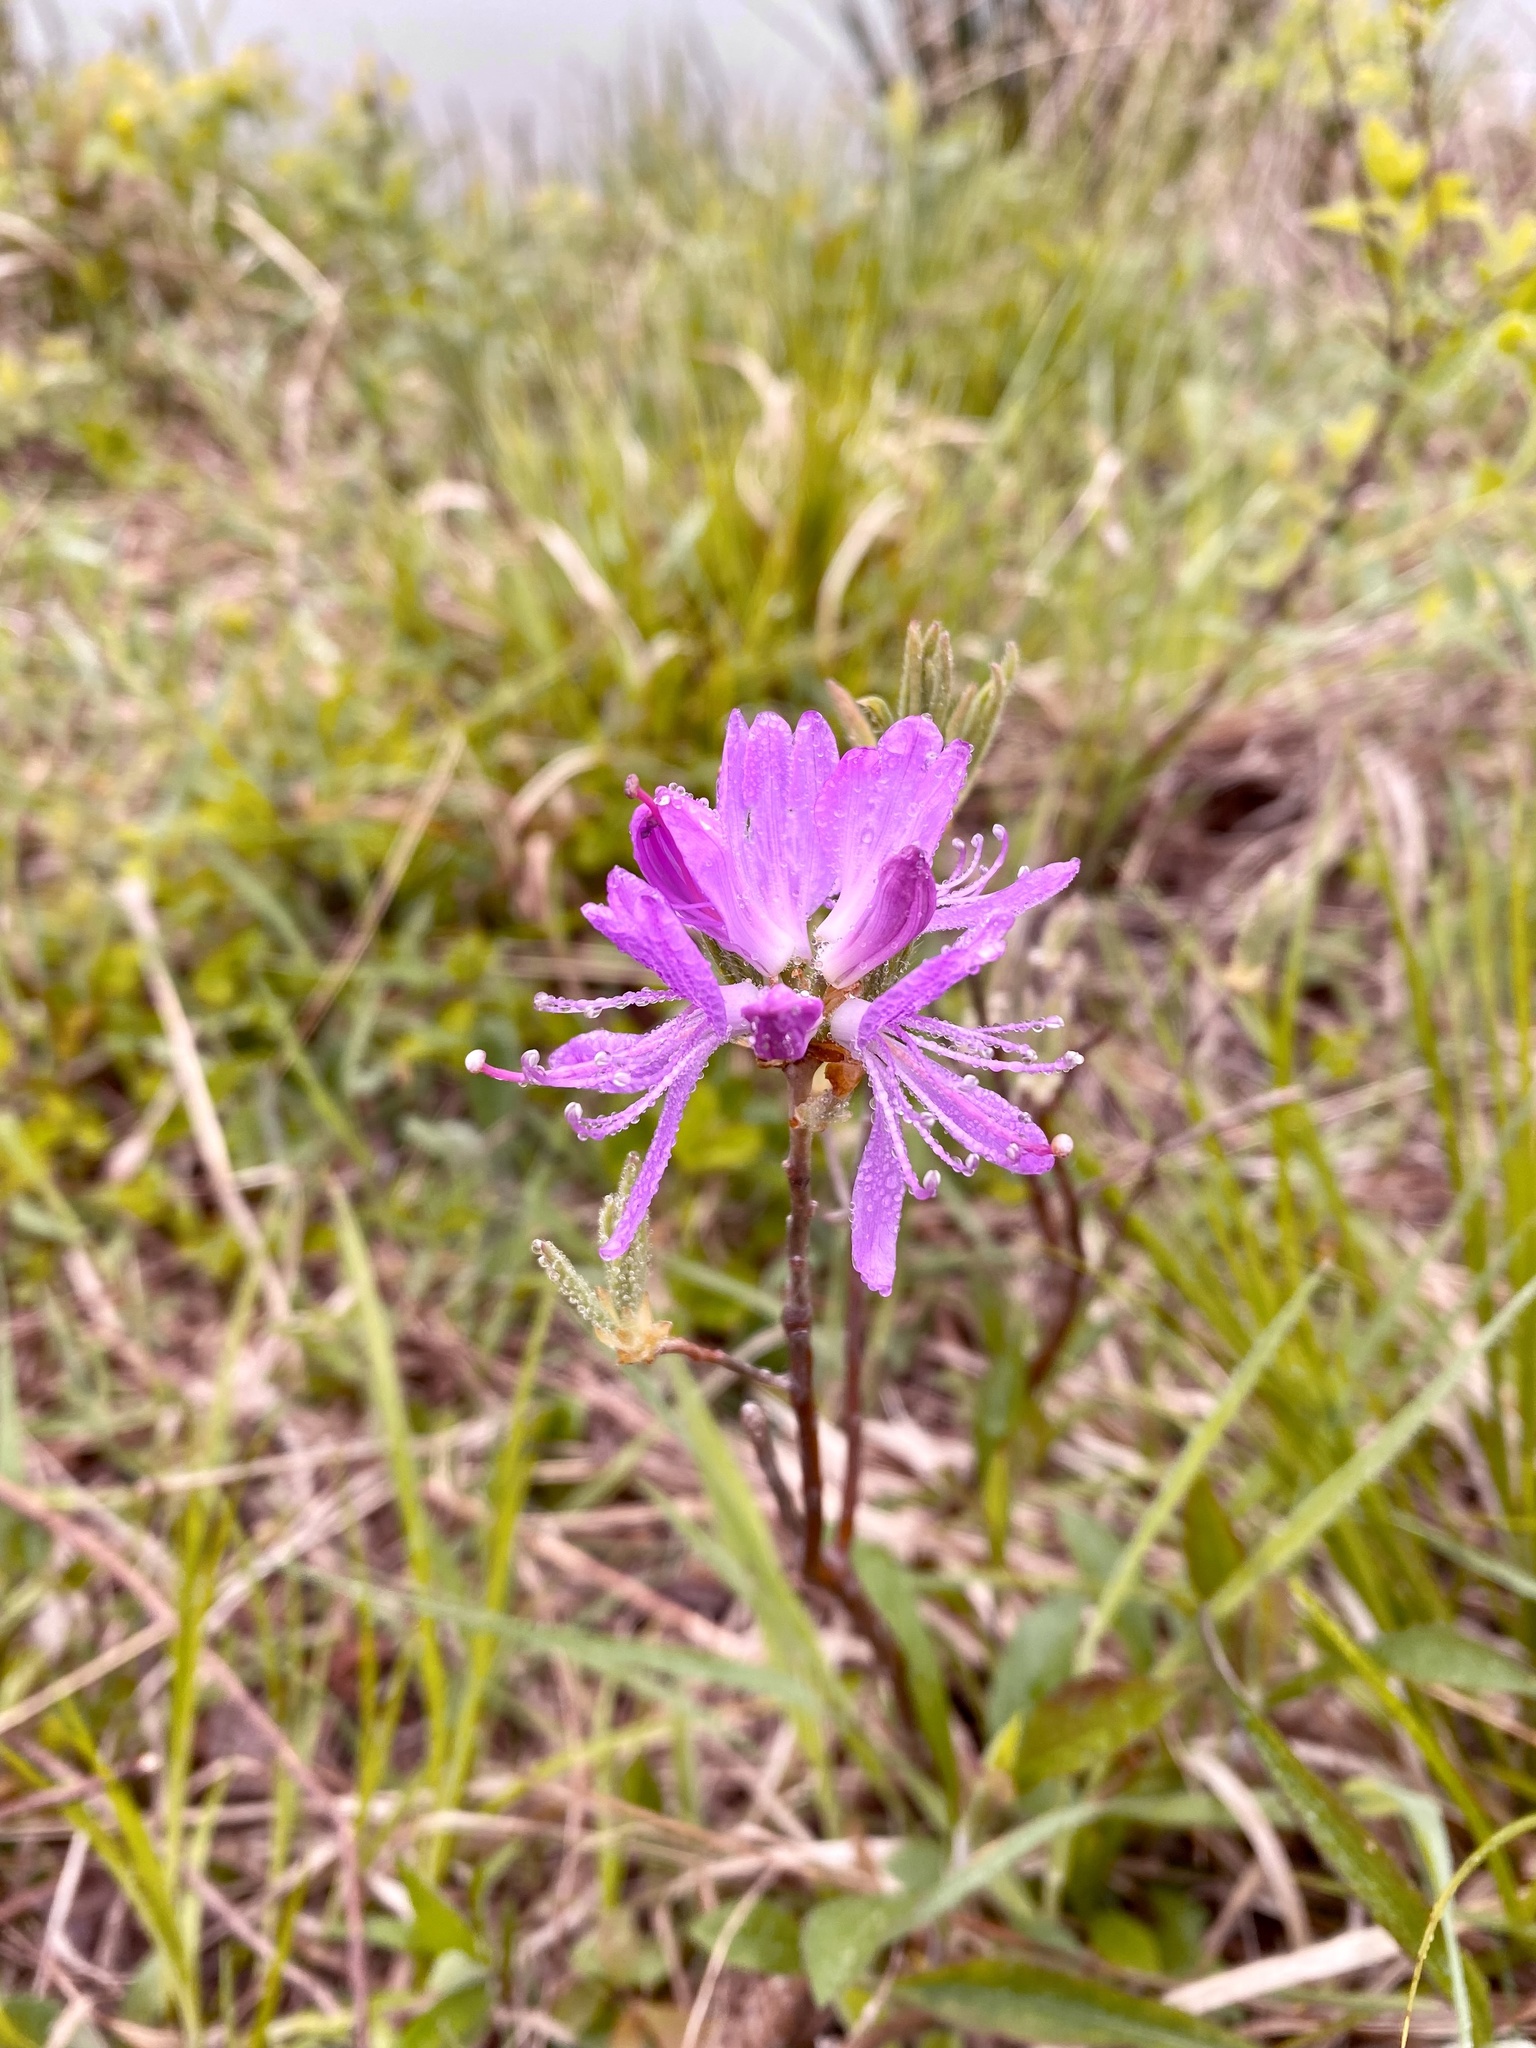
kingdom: Plantae
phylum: Tracheophyta
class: Magnoliopsida
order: Ericales
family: Ericaceae
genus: Rhododendron
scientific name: Rhododendron canadense
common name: Rhodora
